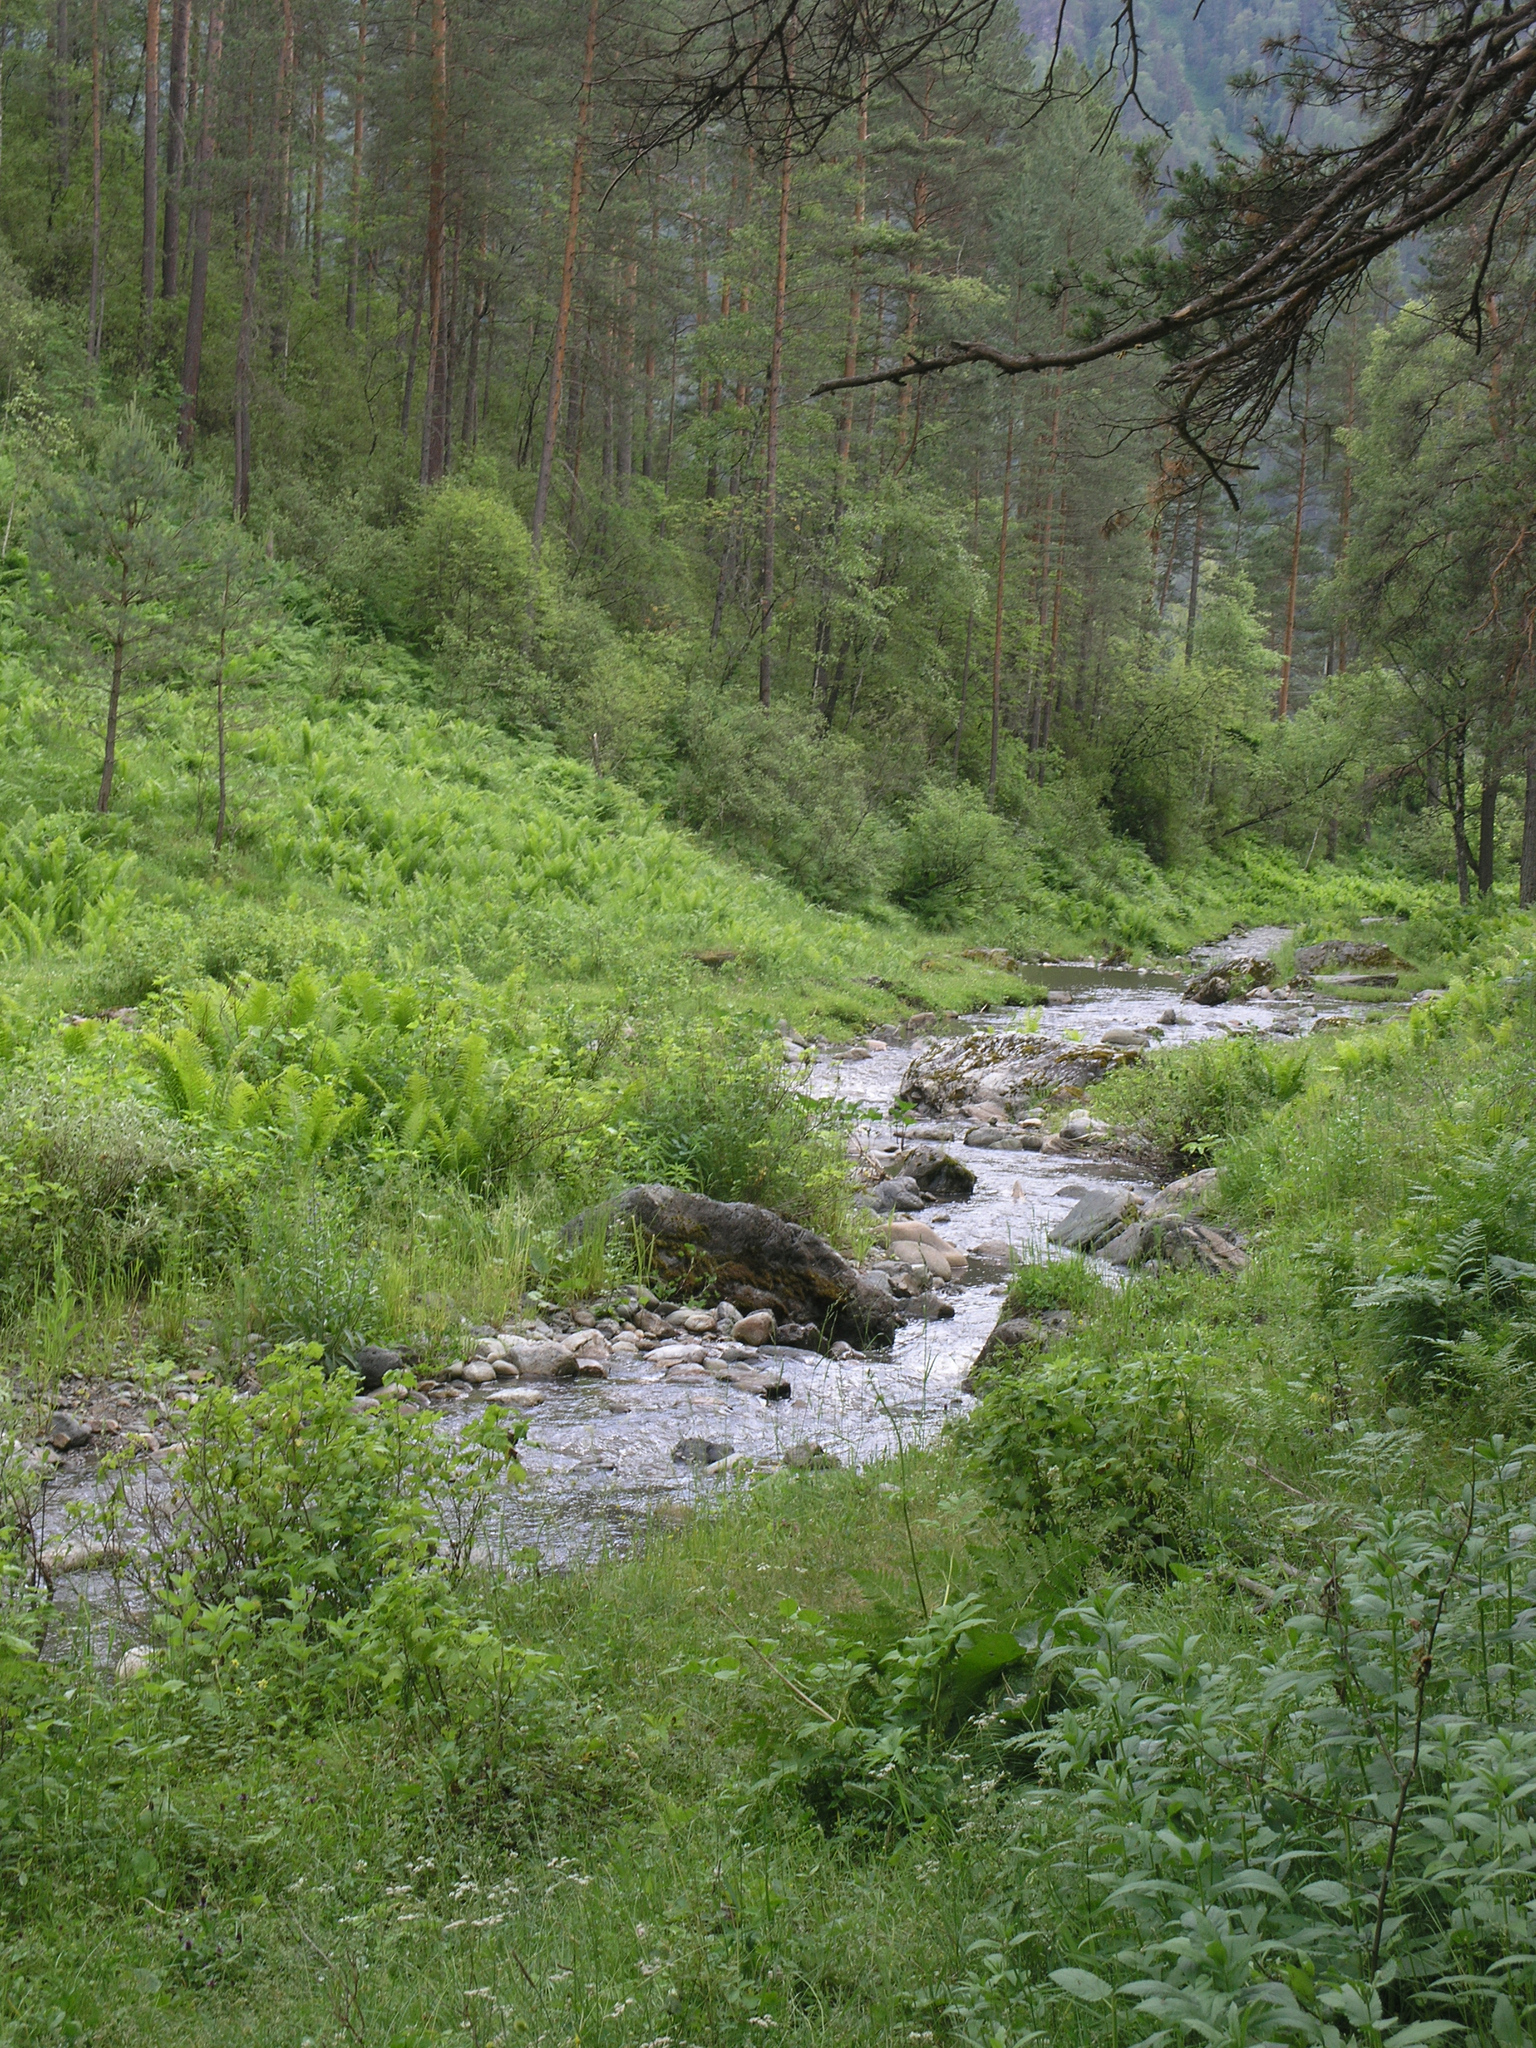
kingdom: Plantae
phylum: Tracheophyta
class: Pinopsida
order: Pinales
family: Pinaceae
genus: Pinus
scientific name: Pinus sylvestris
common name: Scots pine
